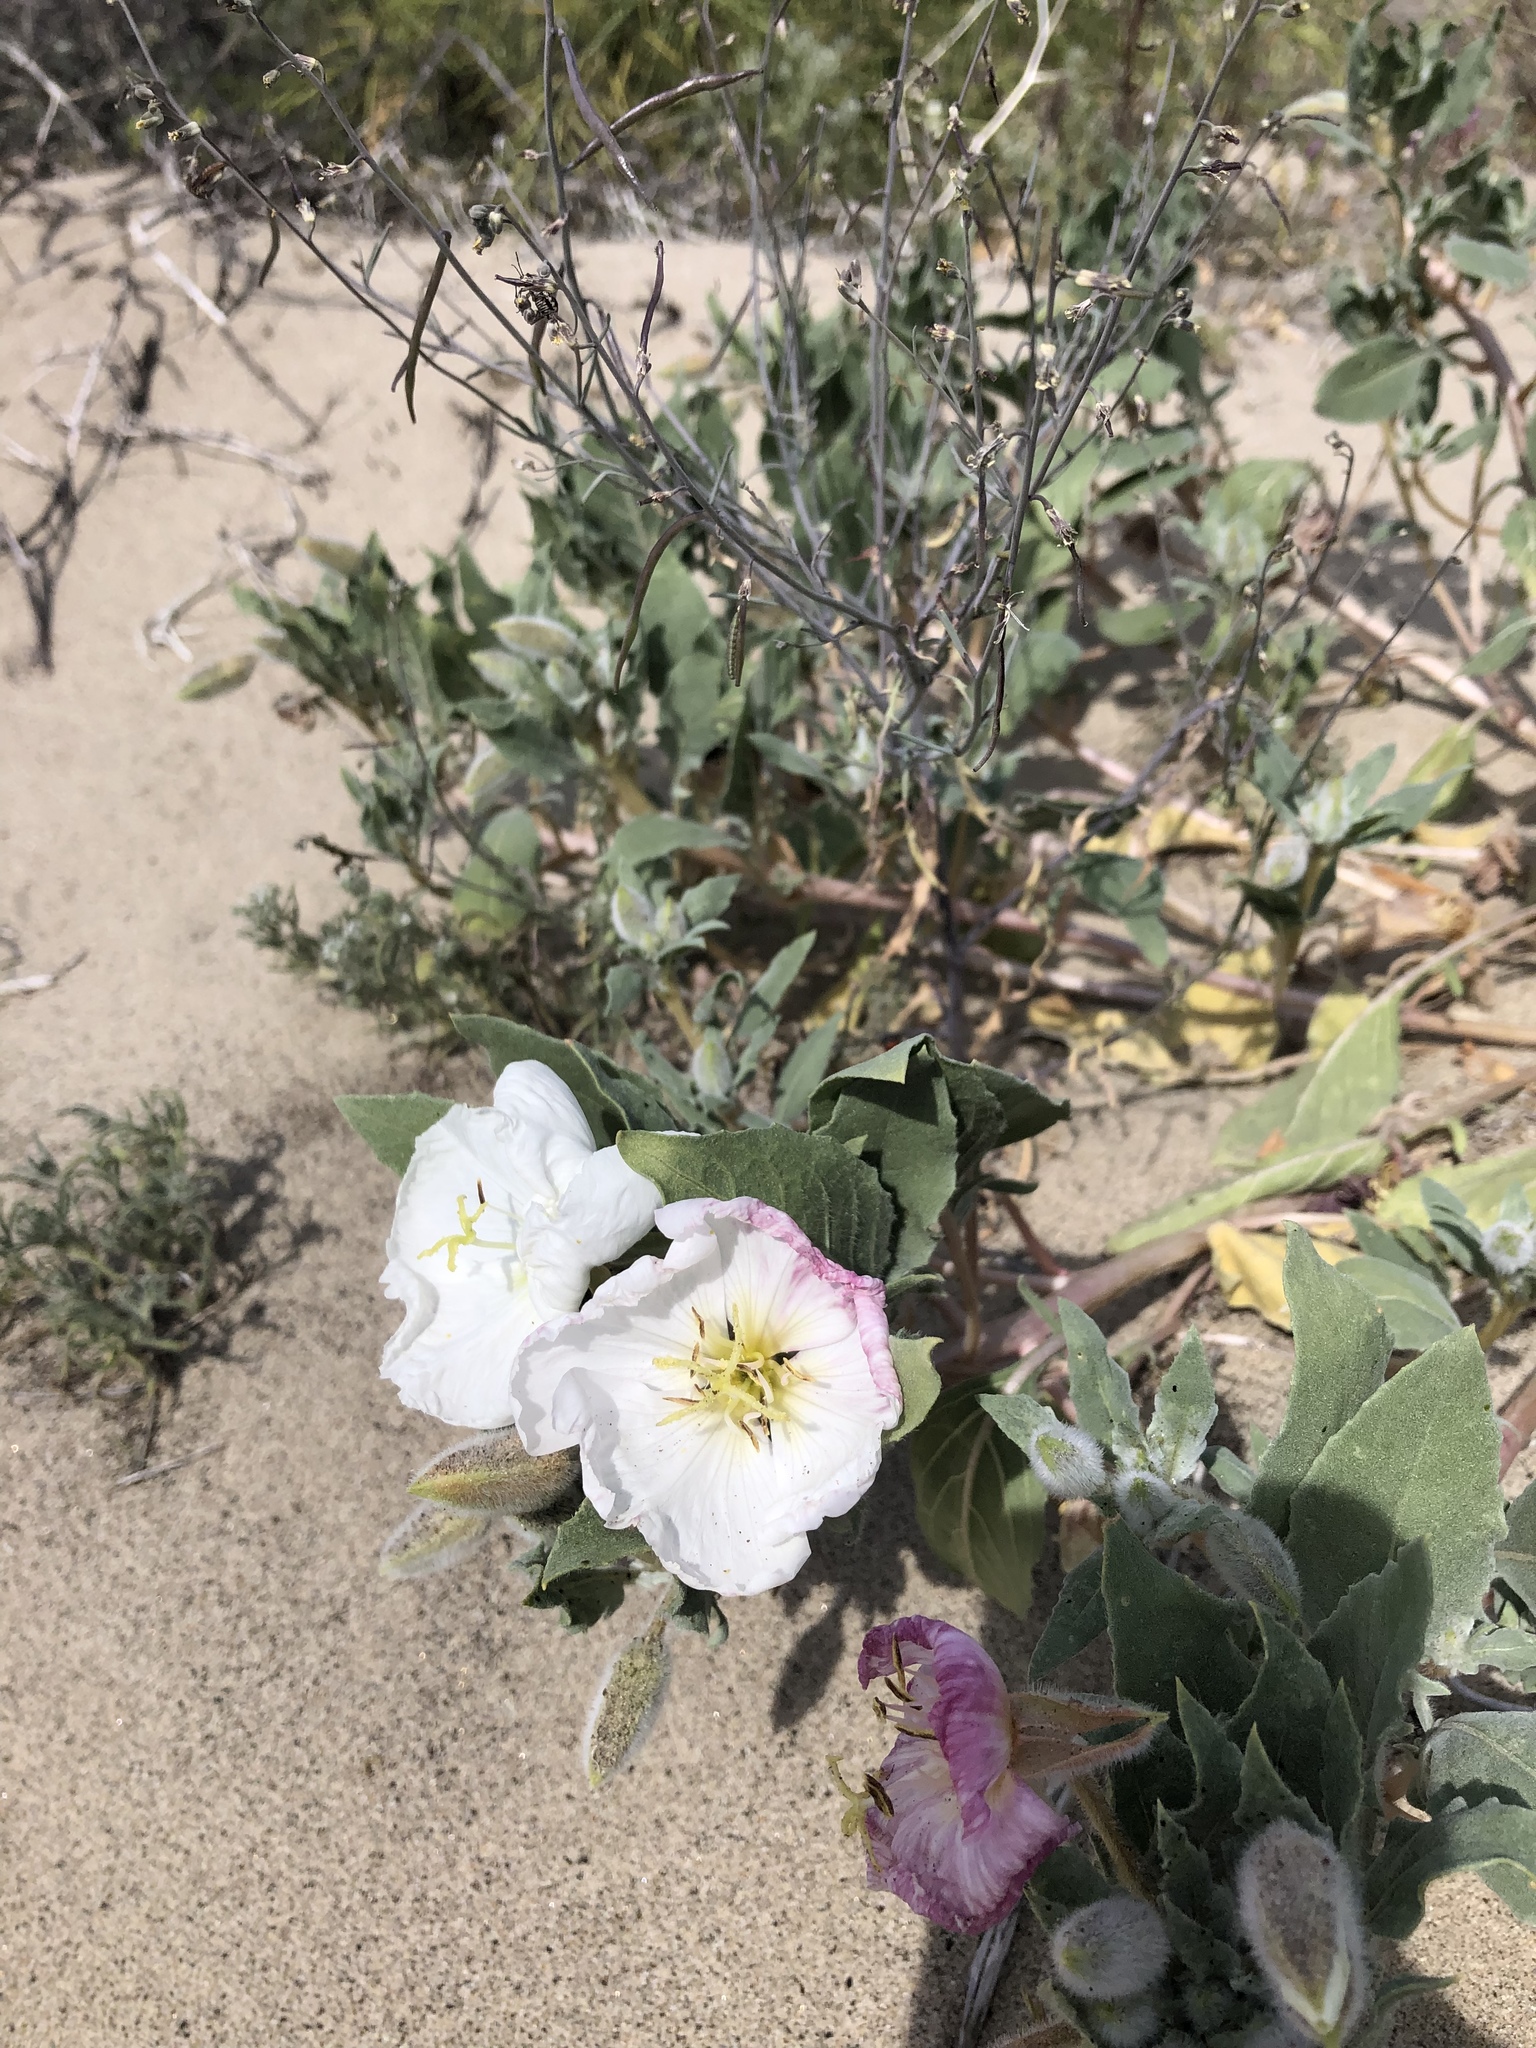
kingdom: Plantae
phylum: Tracheophyta
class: Magnoliopsida
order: Myrtales
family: Onagraceae
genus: Oenothera
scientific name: Oenothera deltoides
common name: Basket evening-primrose
